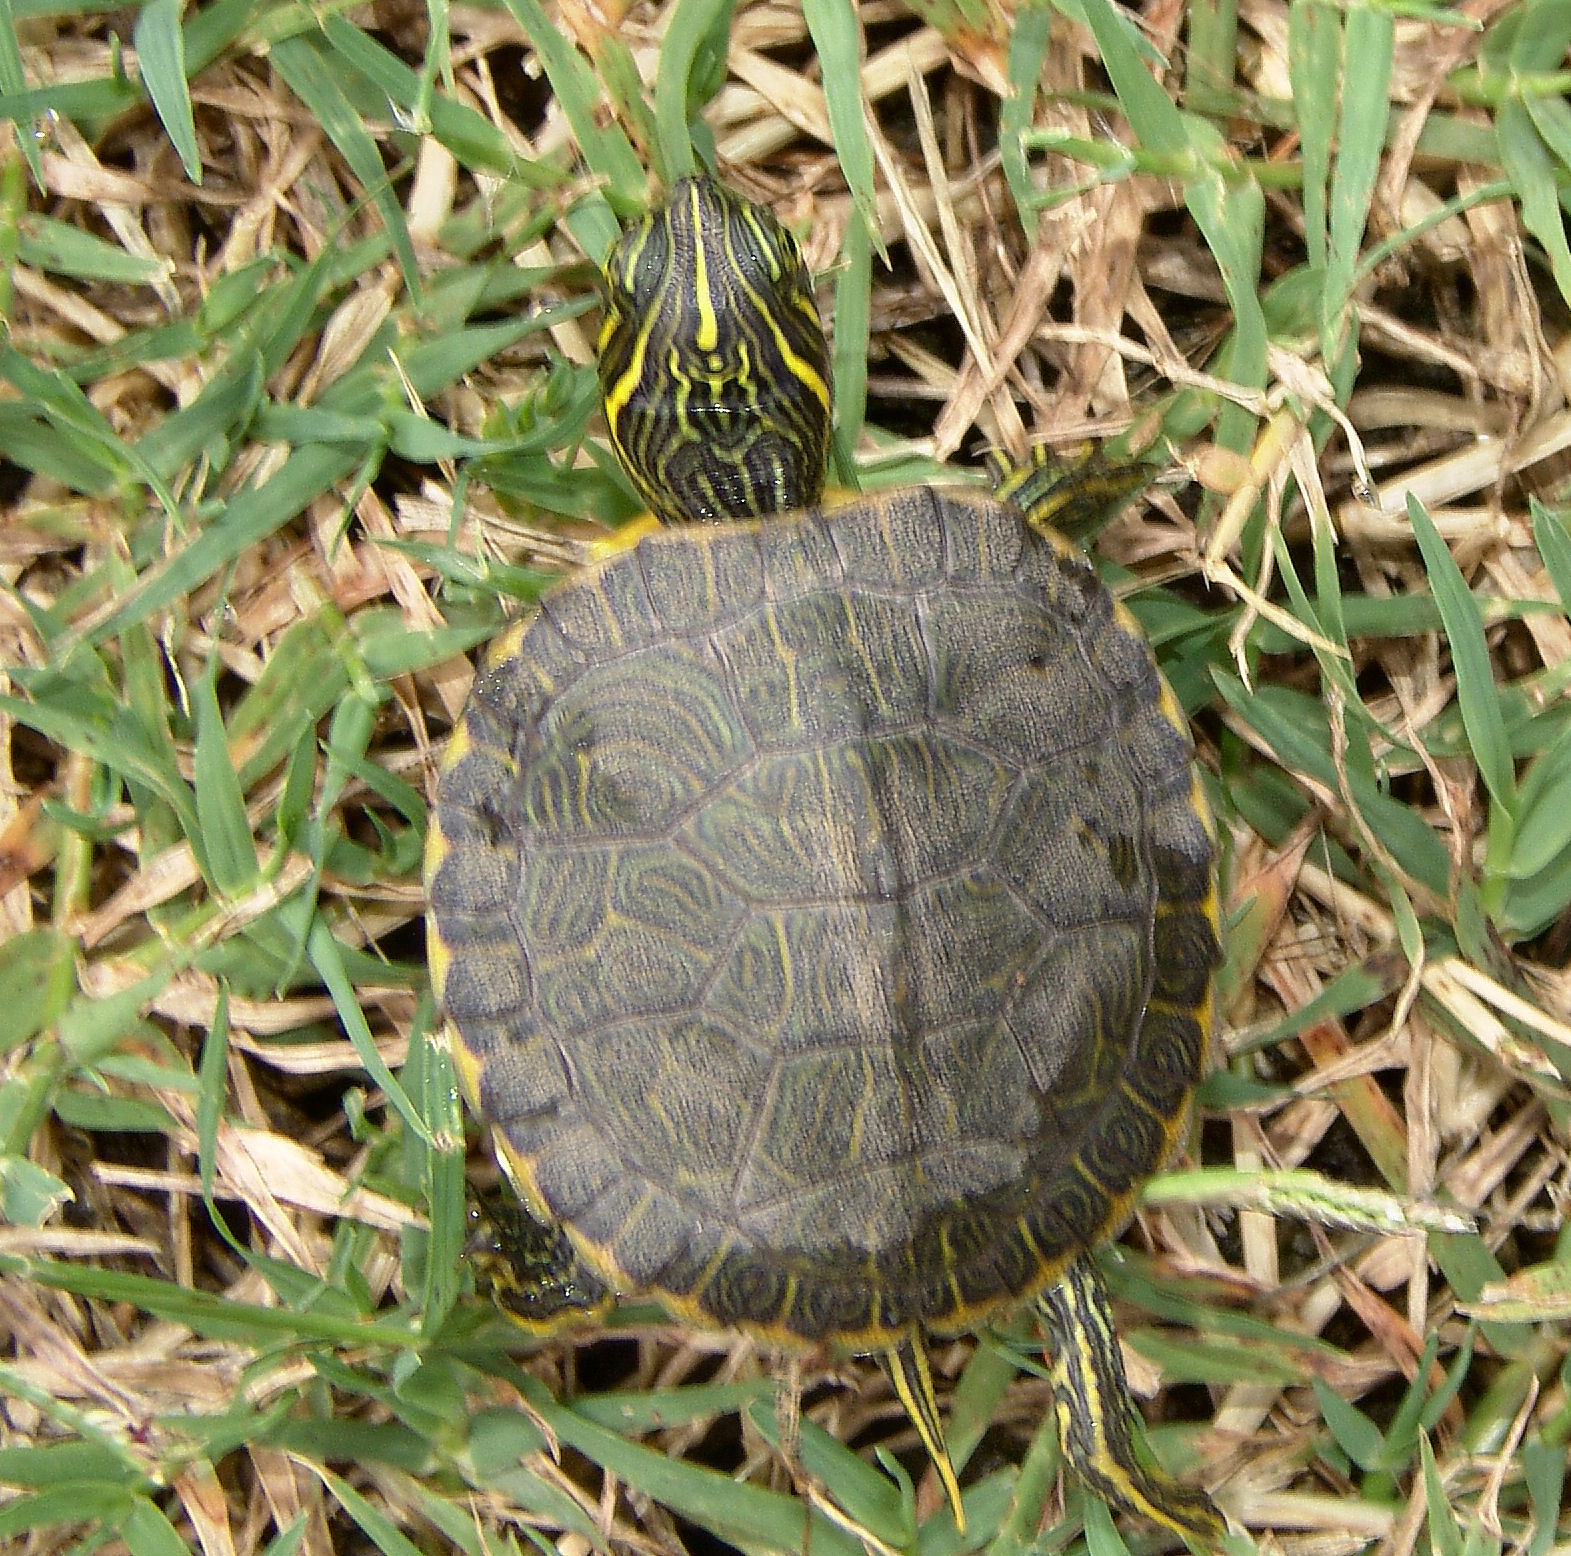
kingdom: Animalia
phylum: Chordata
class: Testudines
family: Emydidae
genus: Pseudemys
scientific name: Pseudemys concinna
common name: Eastern river cooter
